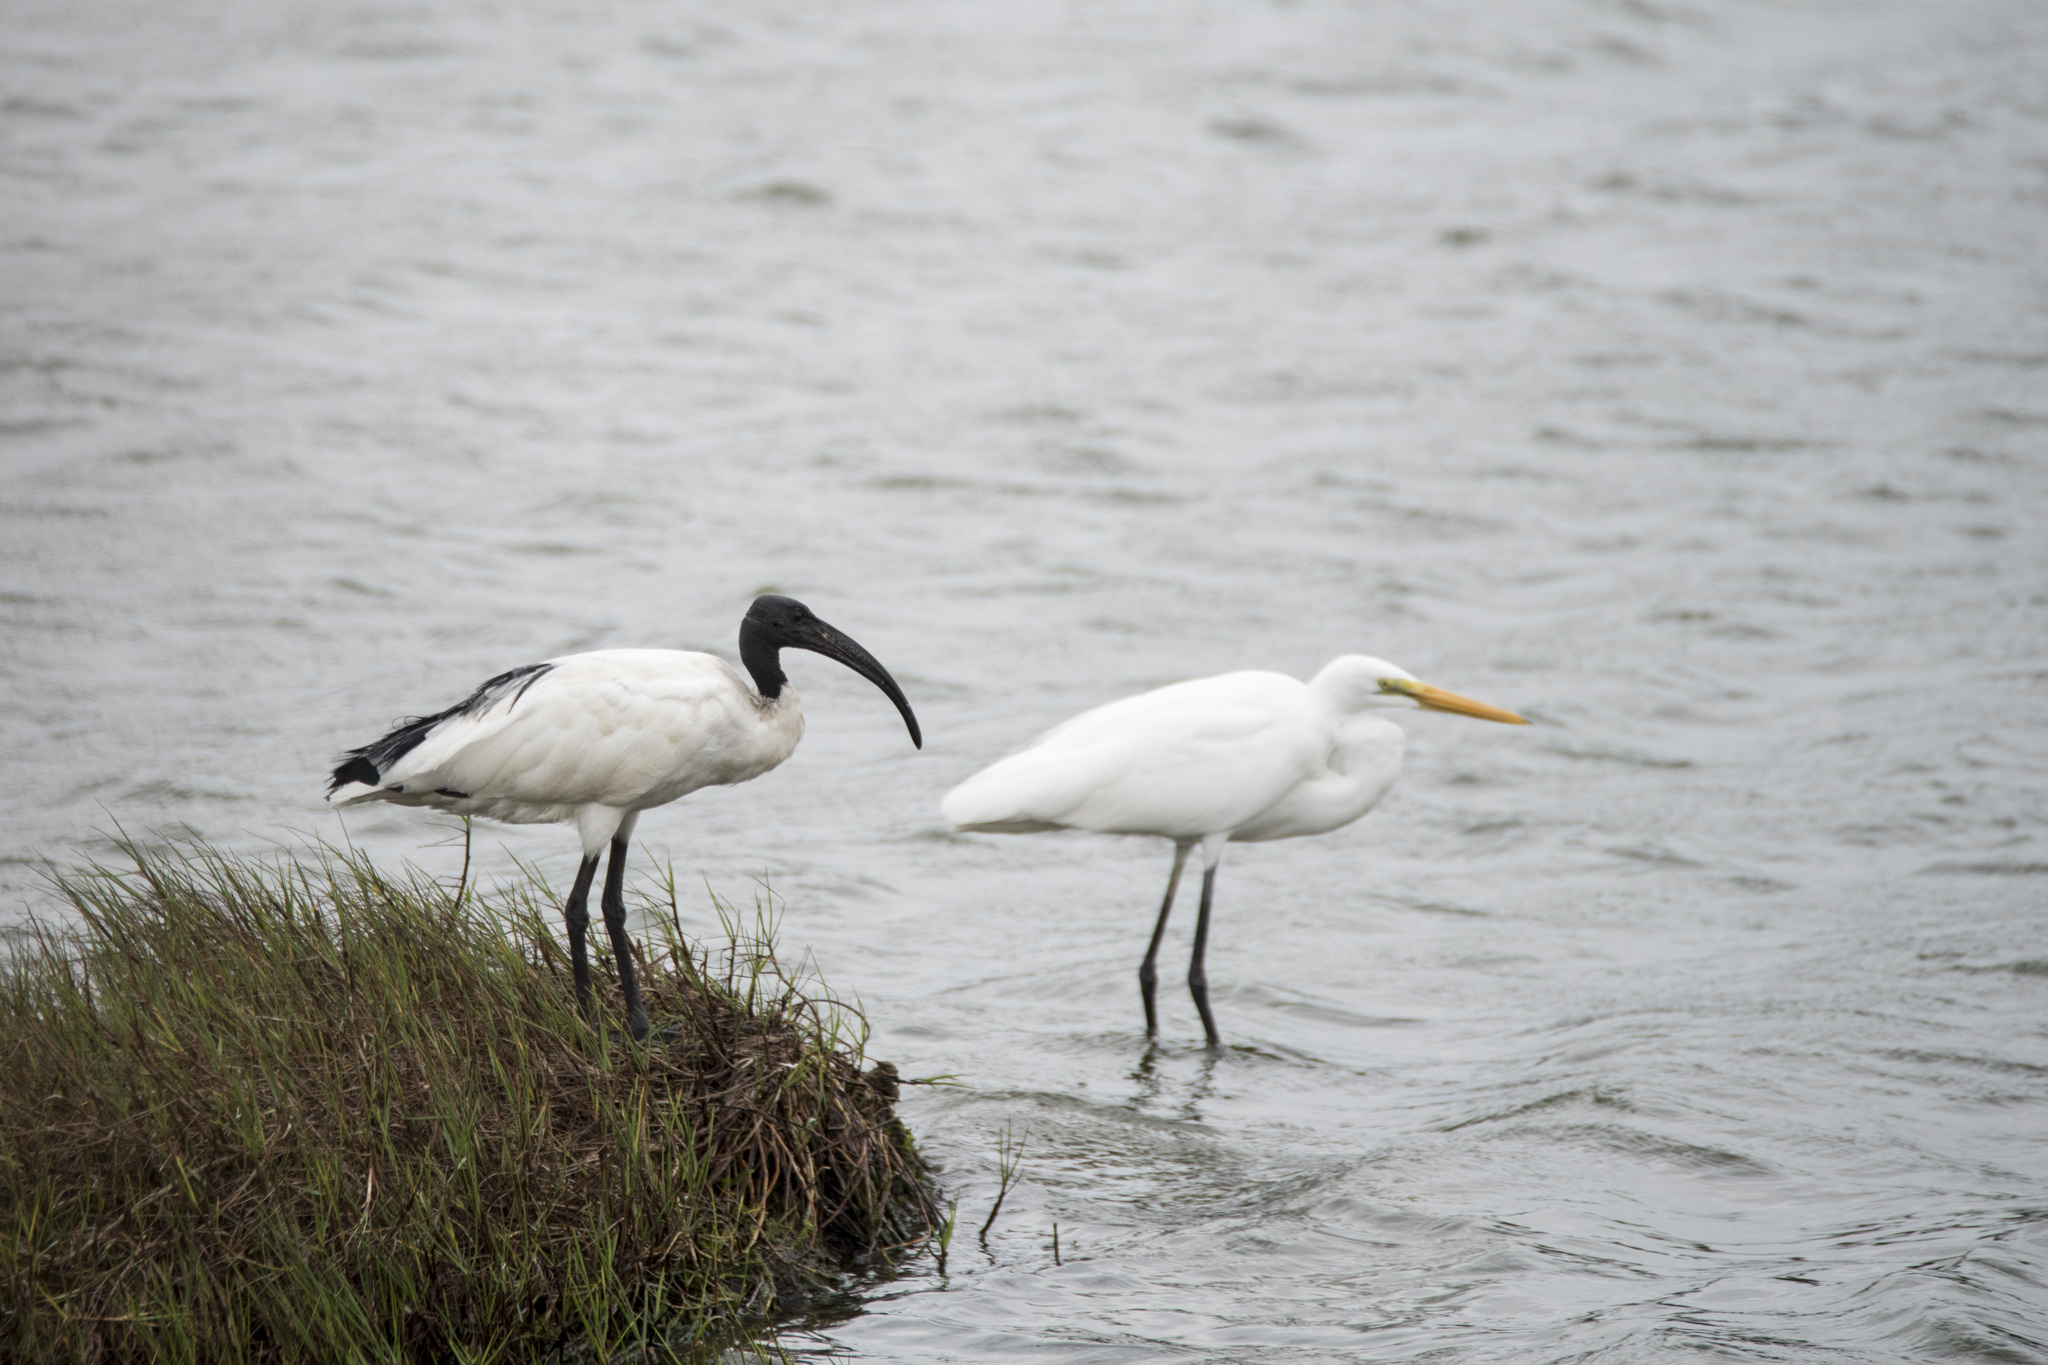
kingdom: Animalia
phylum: Chordata
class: Aves
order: Pelecaniformes
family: Threskiornithidae
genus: Threskiornis
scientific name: Threskiornis aethiopicus
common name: Sacred ibis
